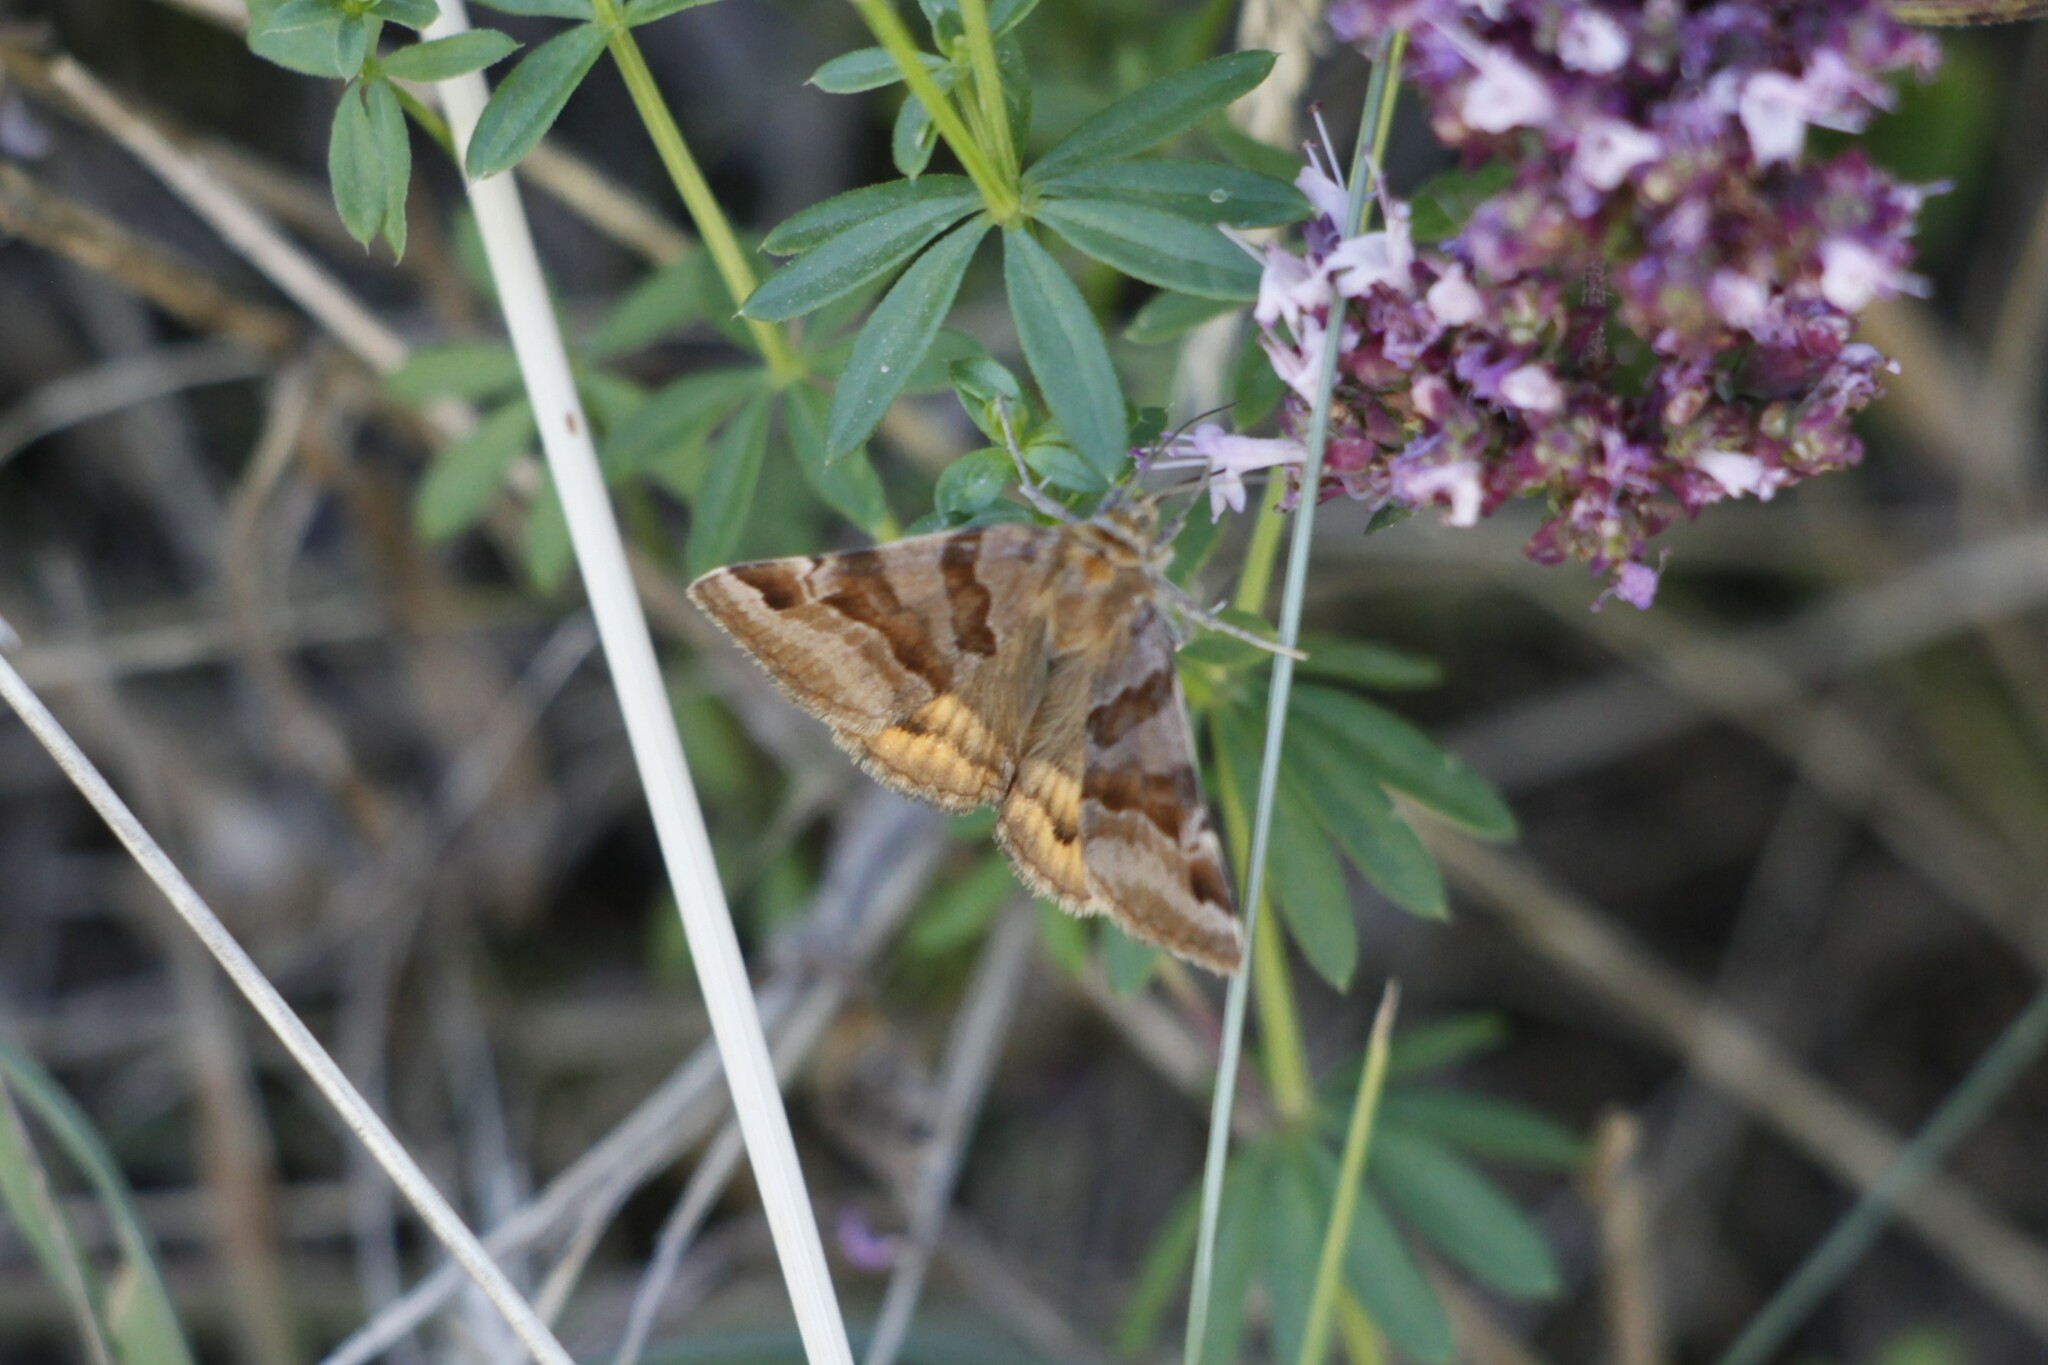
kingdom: Animalia
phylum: Arthropoda
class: Insecta
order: Lepidoptera
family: Erebidae
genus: Euclidia
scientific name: Euclidia glyphica
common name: Burnet companion
